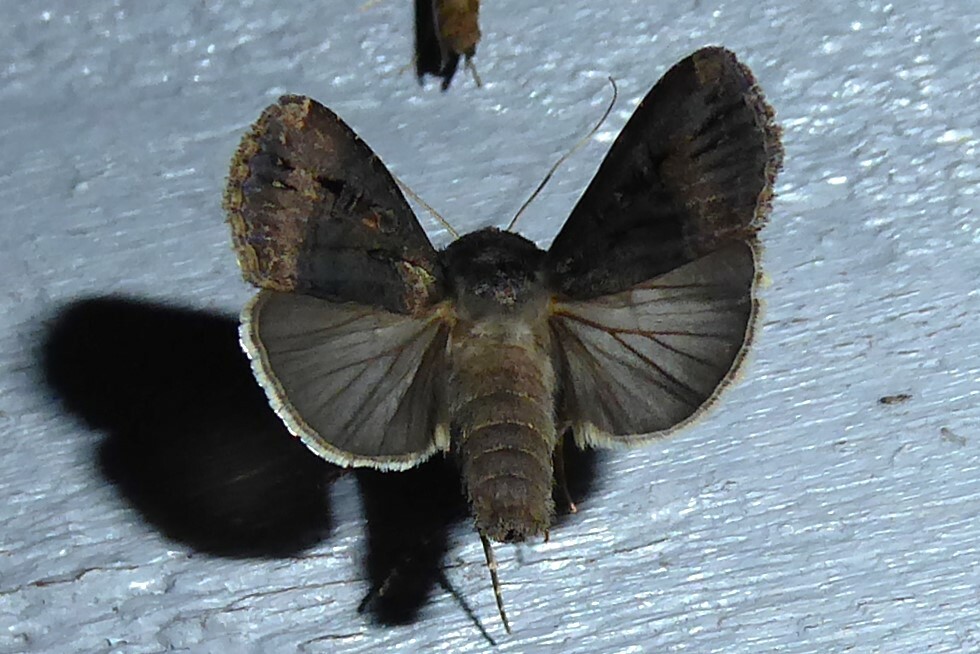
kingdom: Animalia
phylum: Arthropoda
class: Insecta
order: Lepidoptera
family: Noctuidae
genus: Agrotis
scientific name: Agrotis ipsilon
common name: Dark sword-grass
